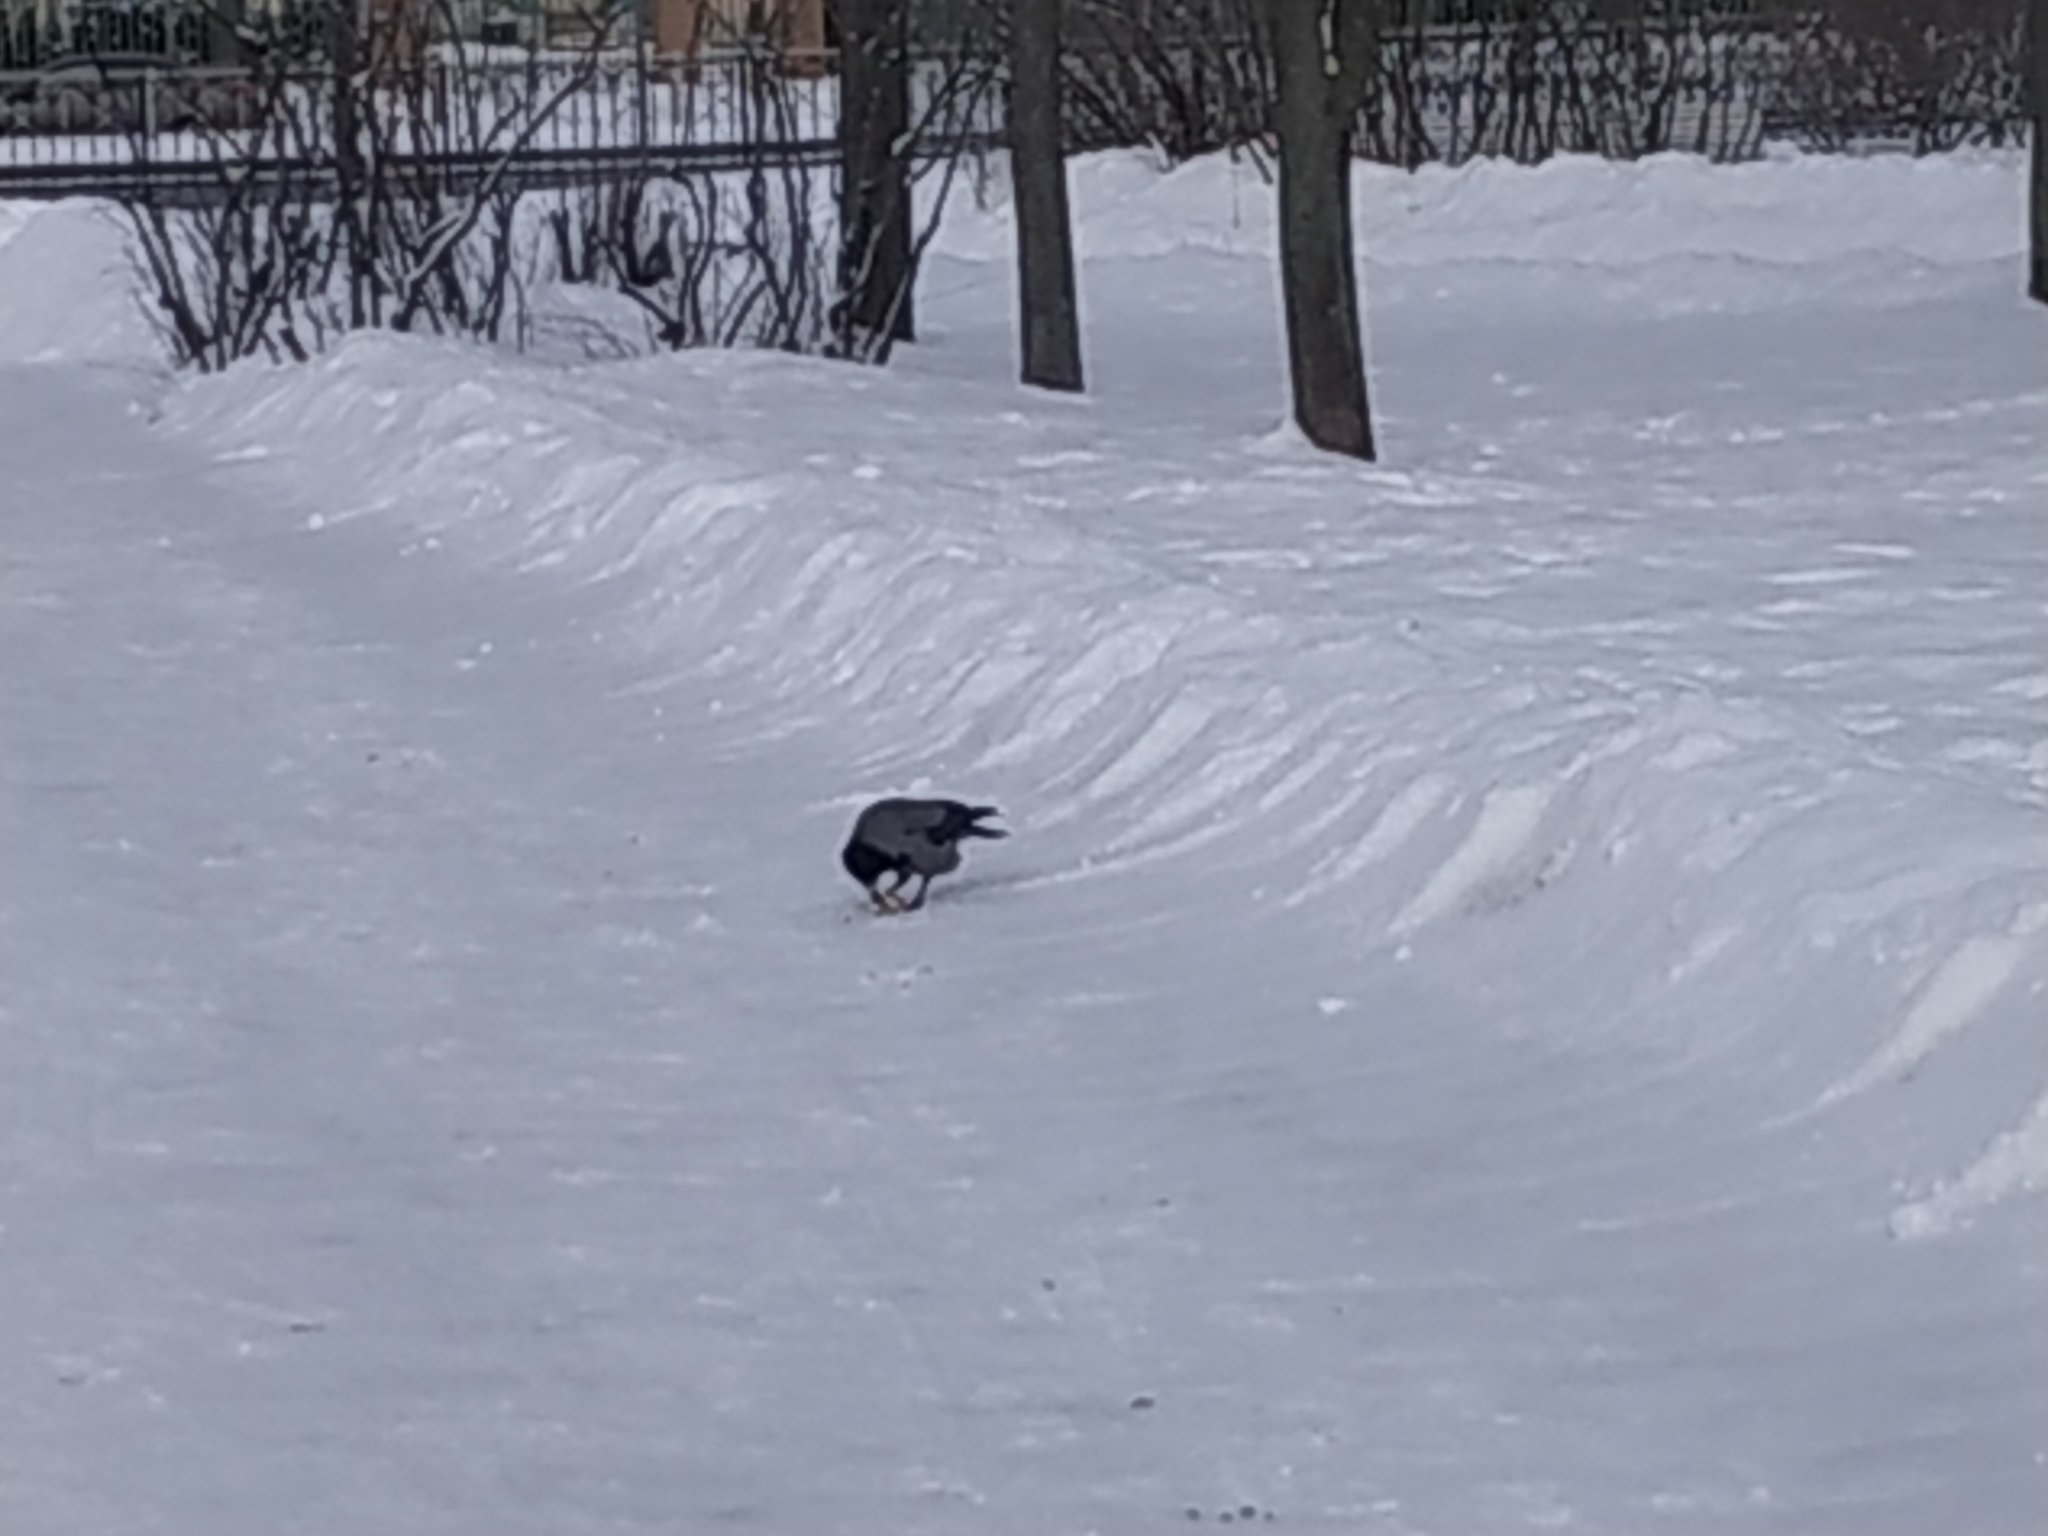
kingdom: Animalia
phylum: Chordata
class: Aves
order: Passeriformes
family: Corvidae
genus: Corvus
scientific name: Corvus cornix
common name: Hooded crow
